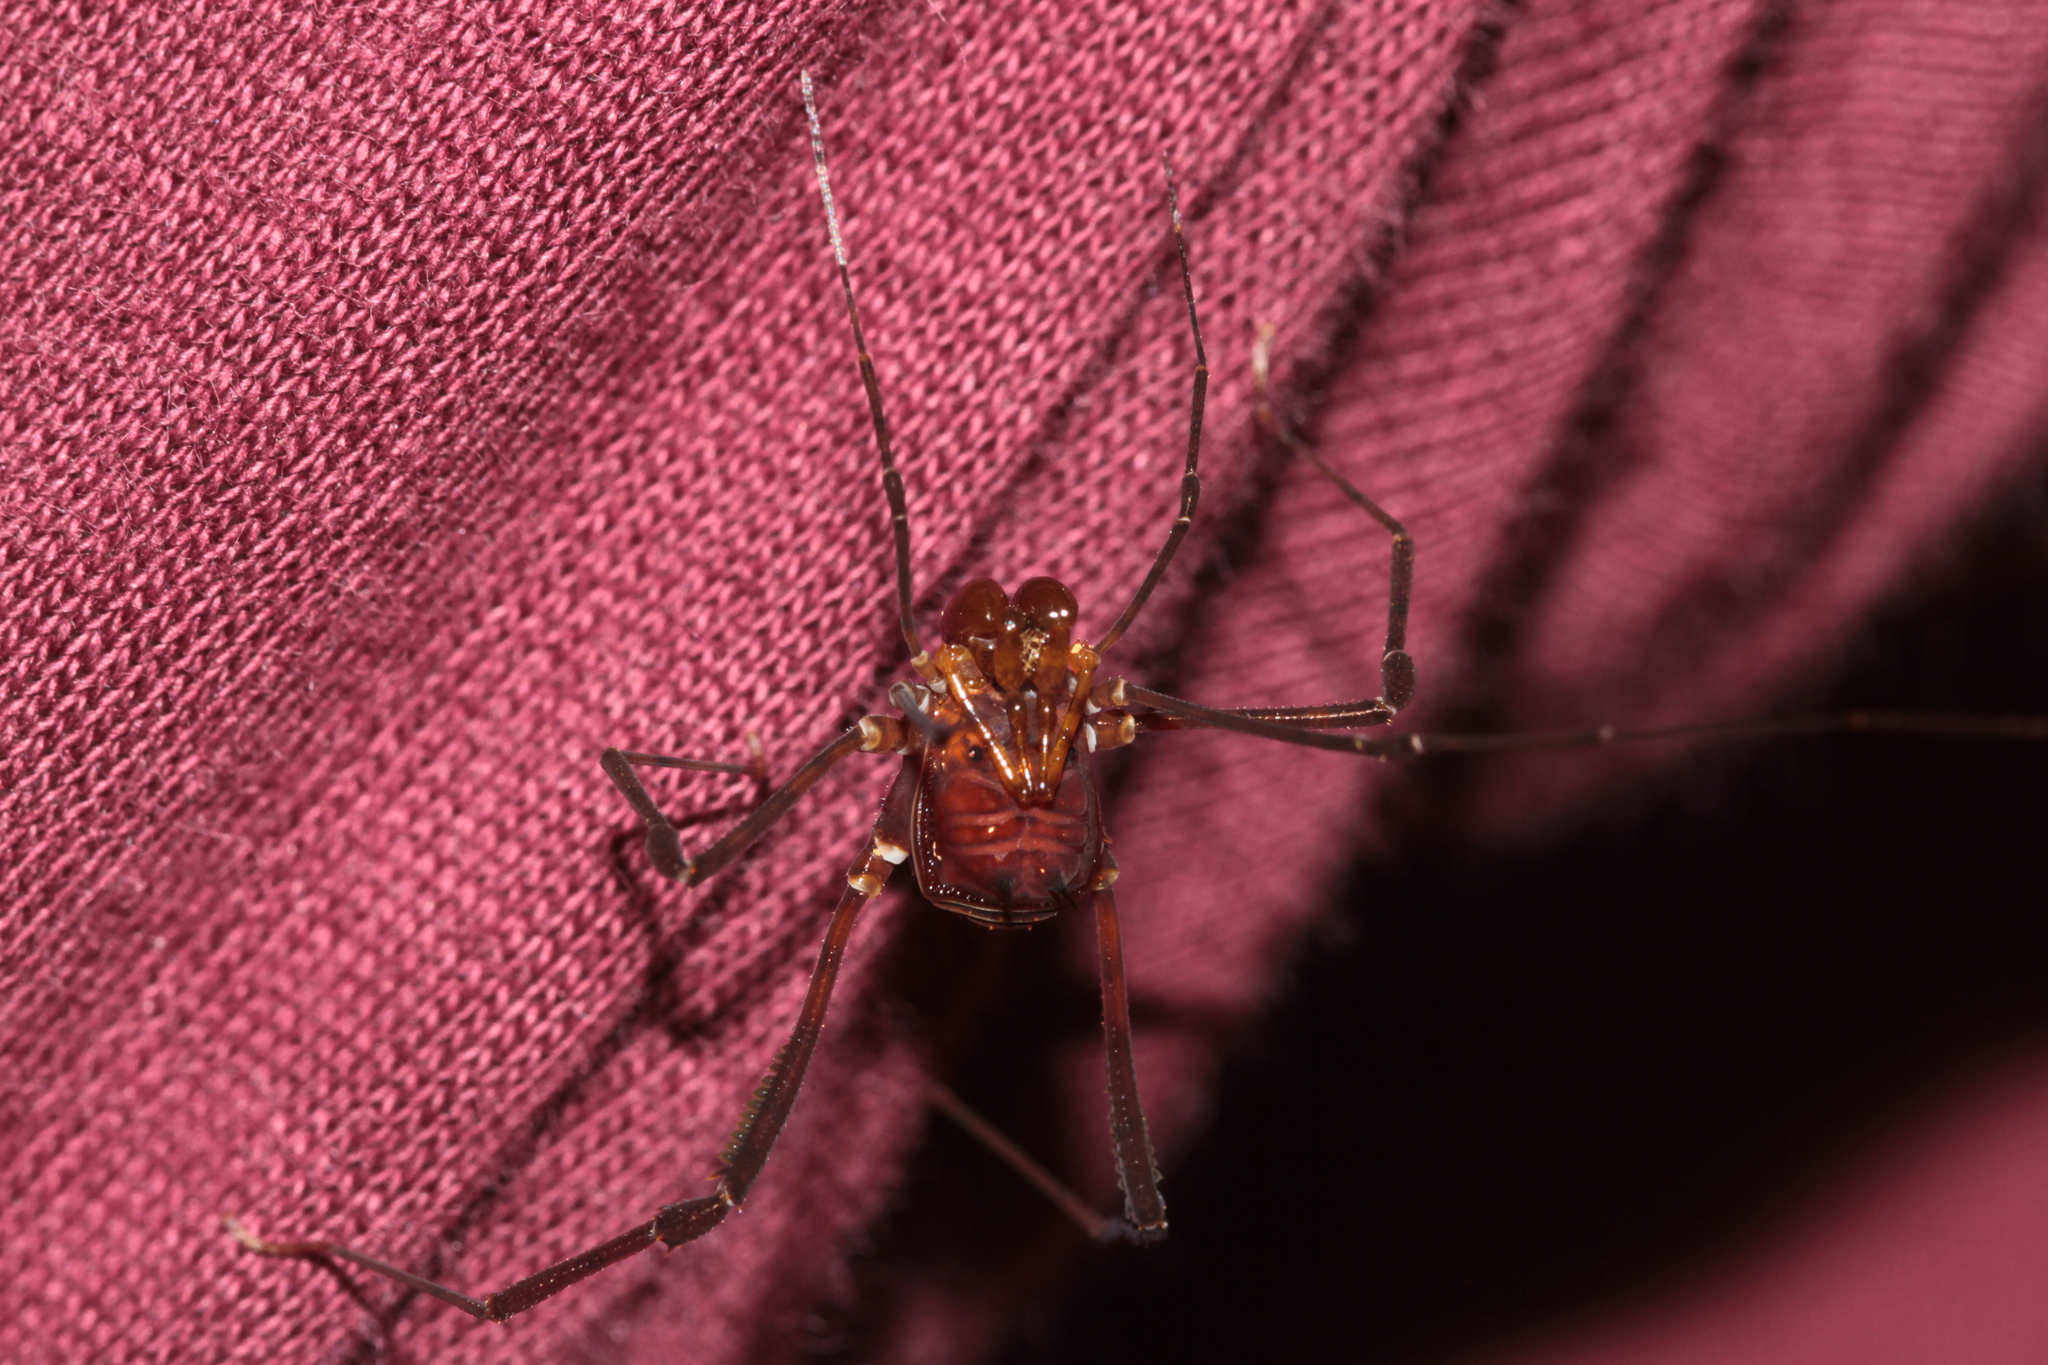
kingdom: Animalia
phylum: Arthropoda
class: Arachnida
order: Opiliones
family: Stygnidae
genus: Stygnus
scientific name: Stygnus pectinipes
